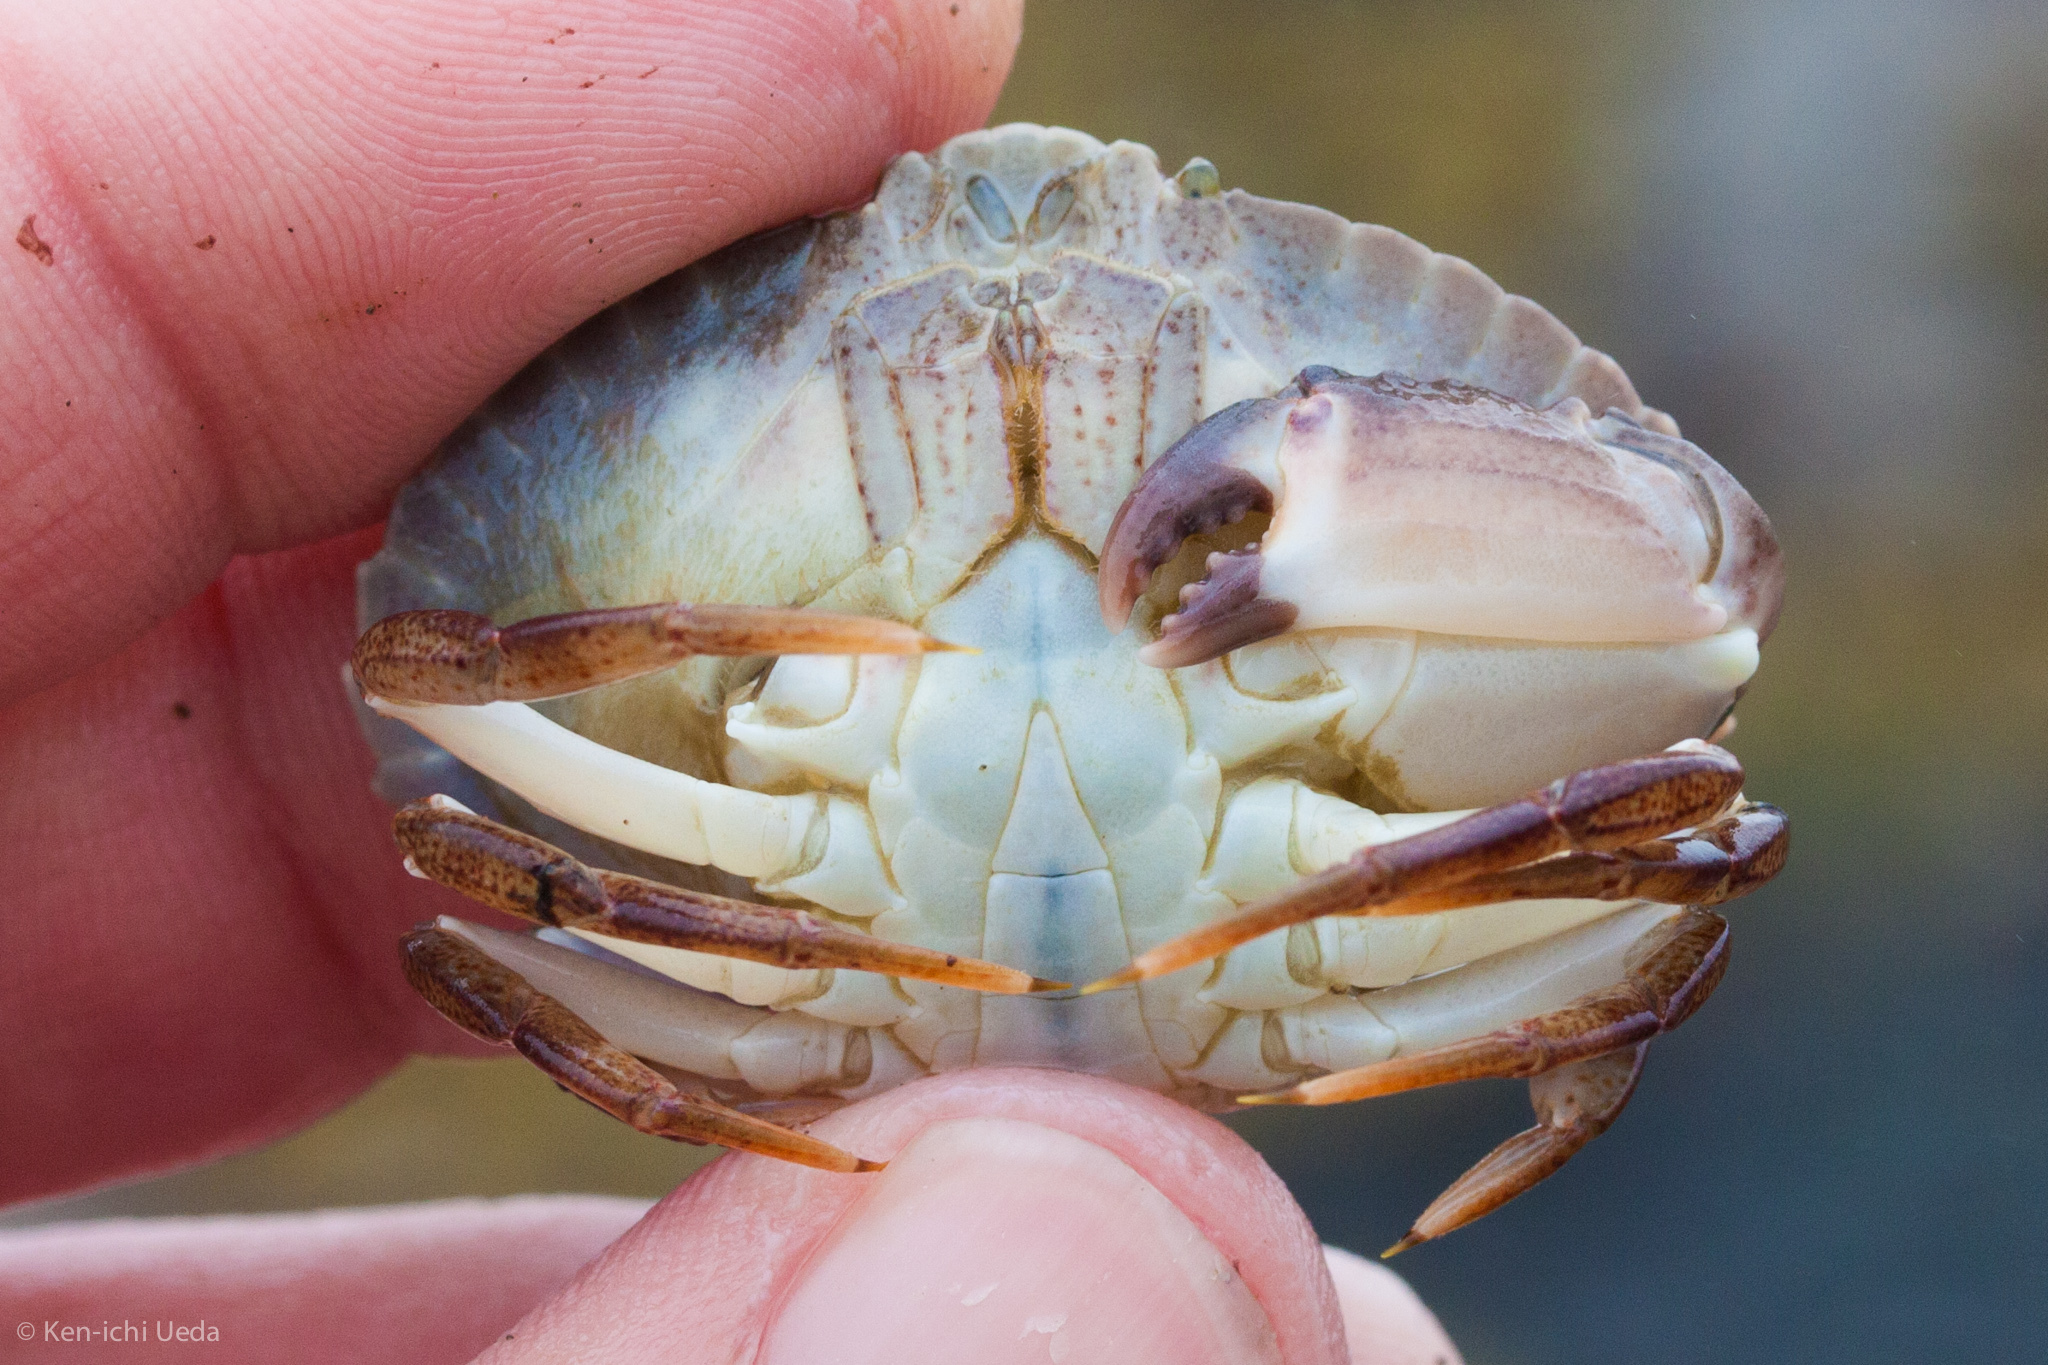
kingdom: Animalia
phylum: Arthropoda
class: Malacostraca
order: Decapoda
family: Cancridae
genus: Cancer
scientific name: Cancer productus
